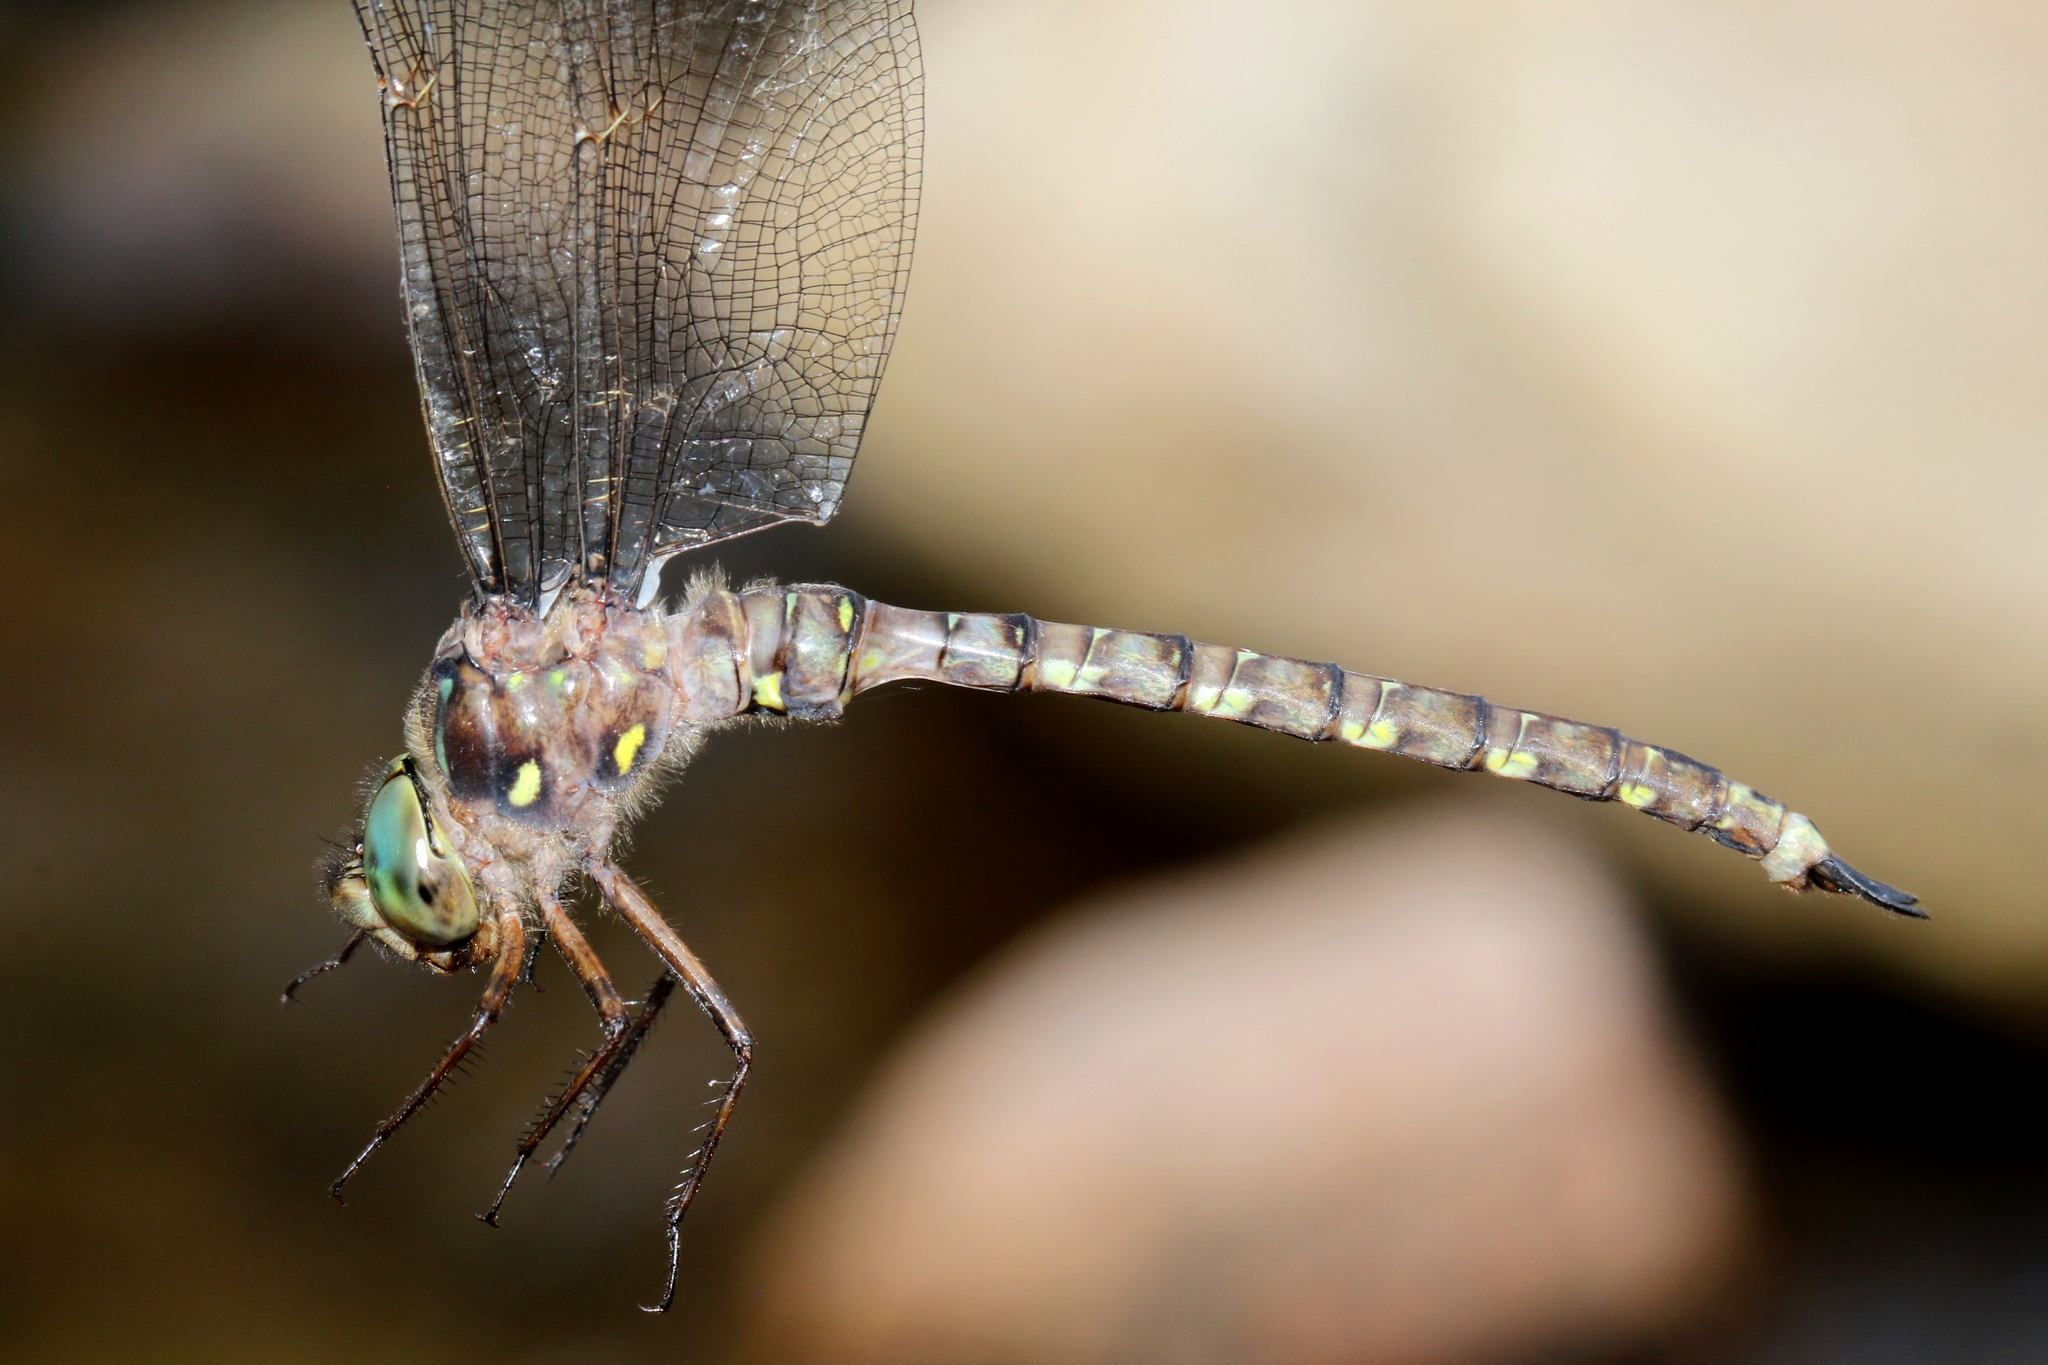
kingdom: Animalia
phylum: Arthropoda
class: Insecta
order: Odonata
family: Aeshnidae
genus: Boyeria
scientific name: Boyeria grafiana
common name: Ocellated darner
